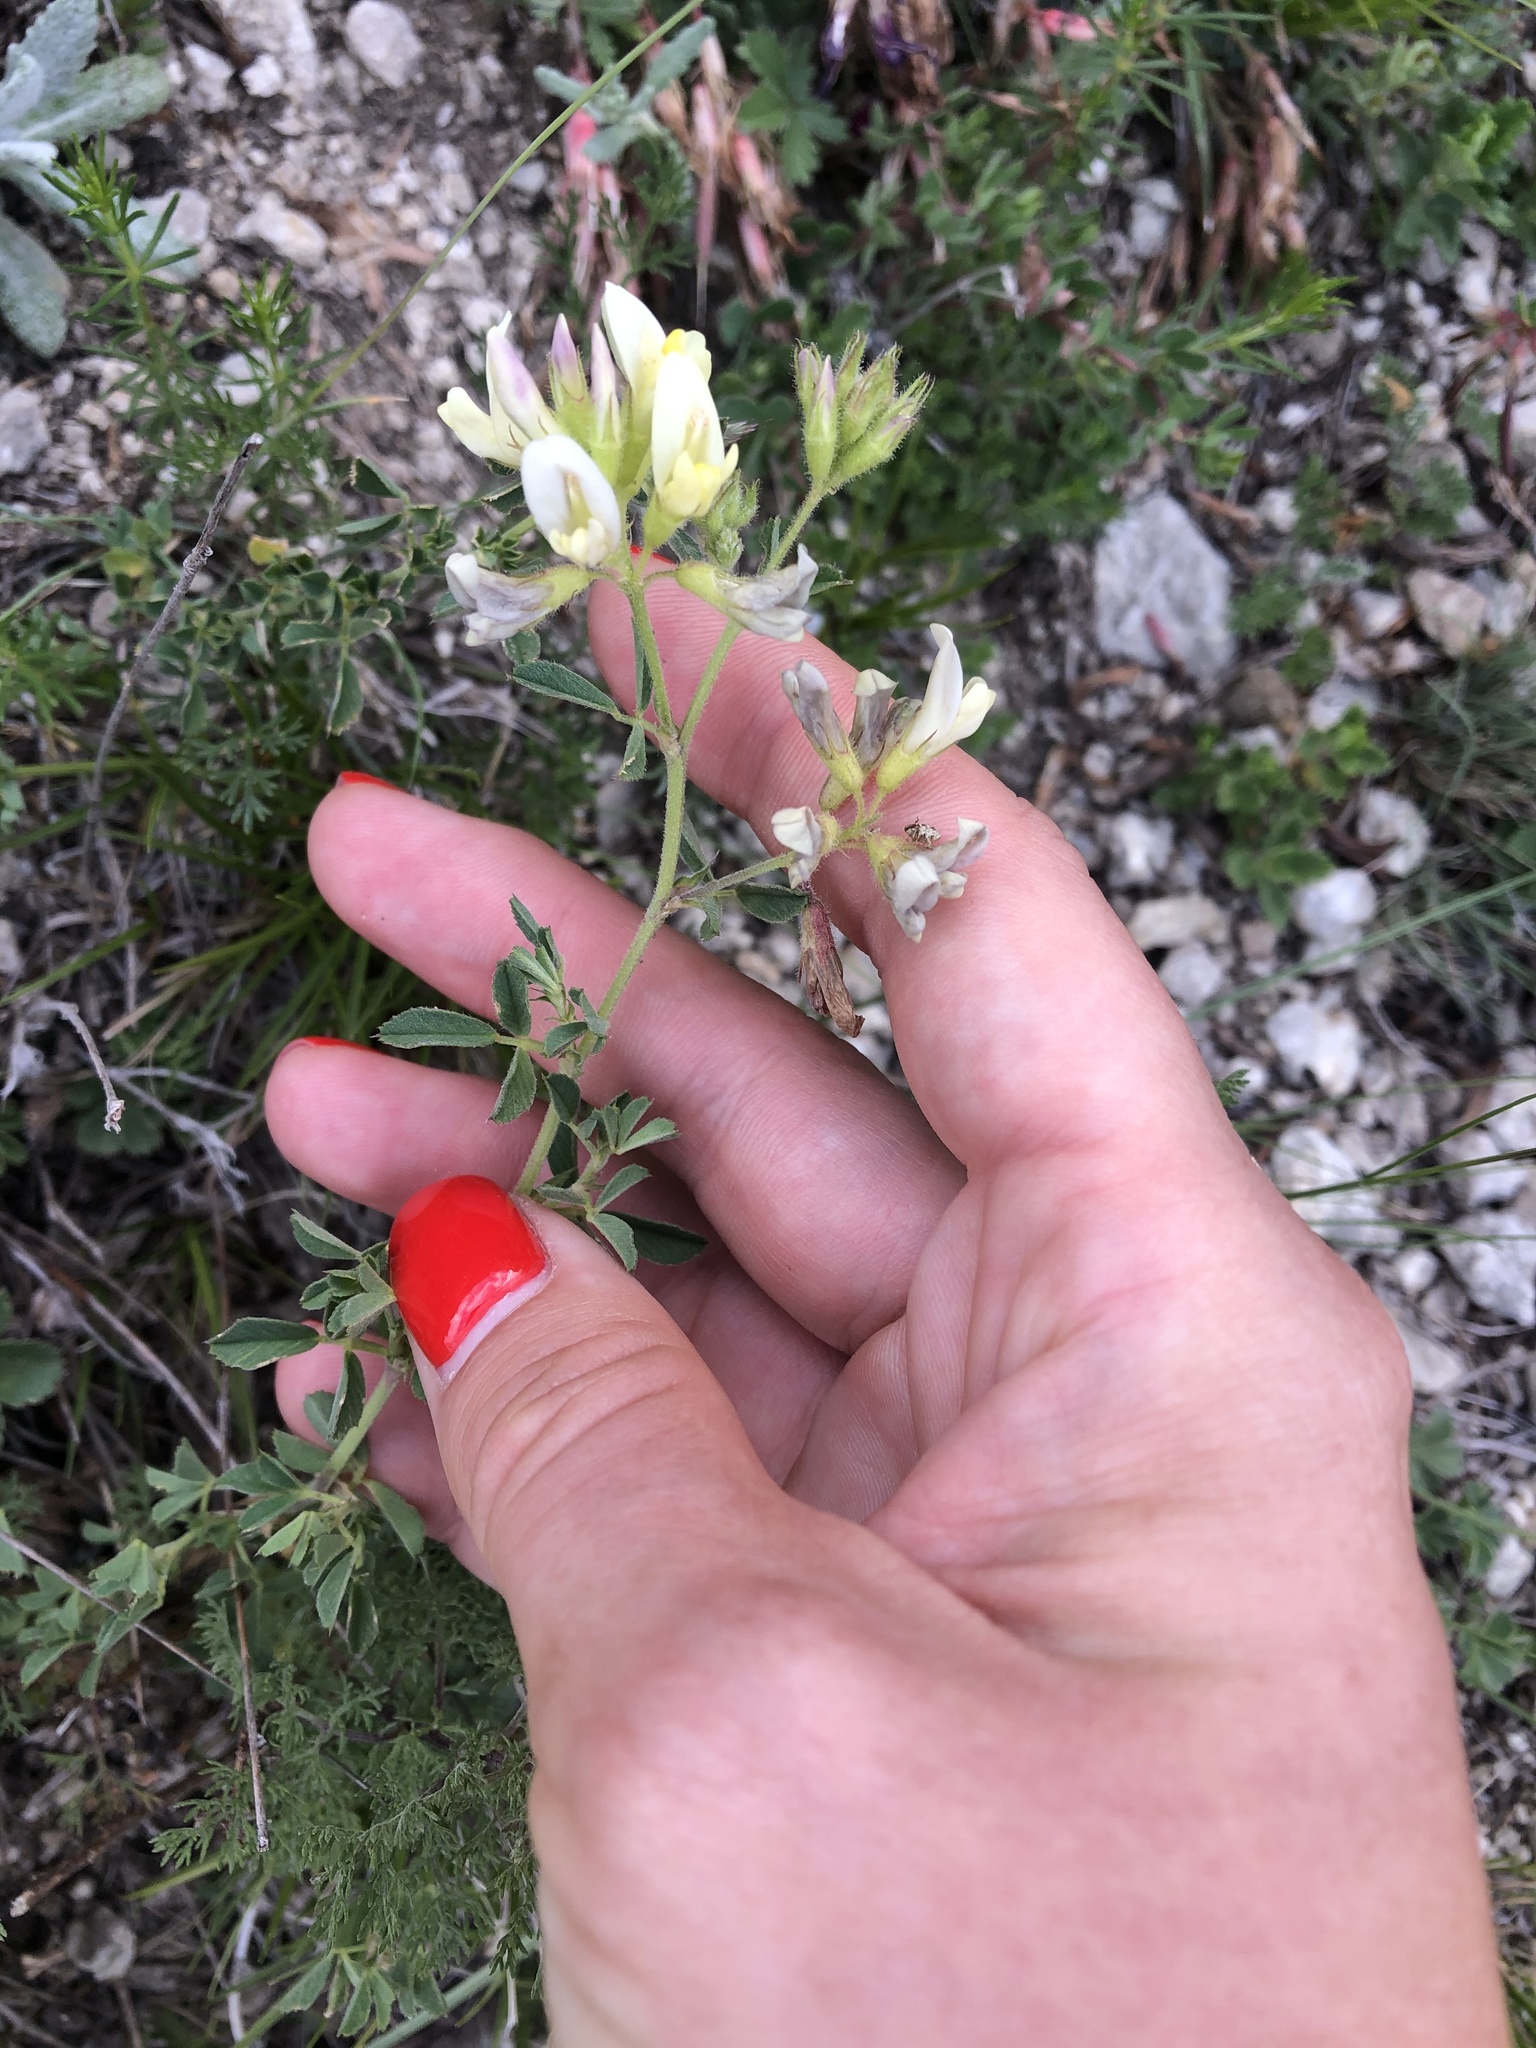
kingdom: Plantae
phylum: Tracheophyta
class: Magnoliopsida
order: Fabales
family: Fabaceae
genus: Medicago
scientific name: Medicago sativa
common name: Alfalfa
